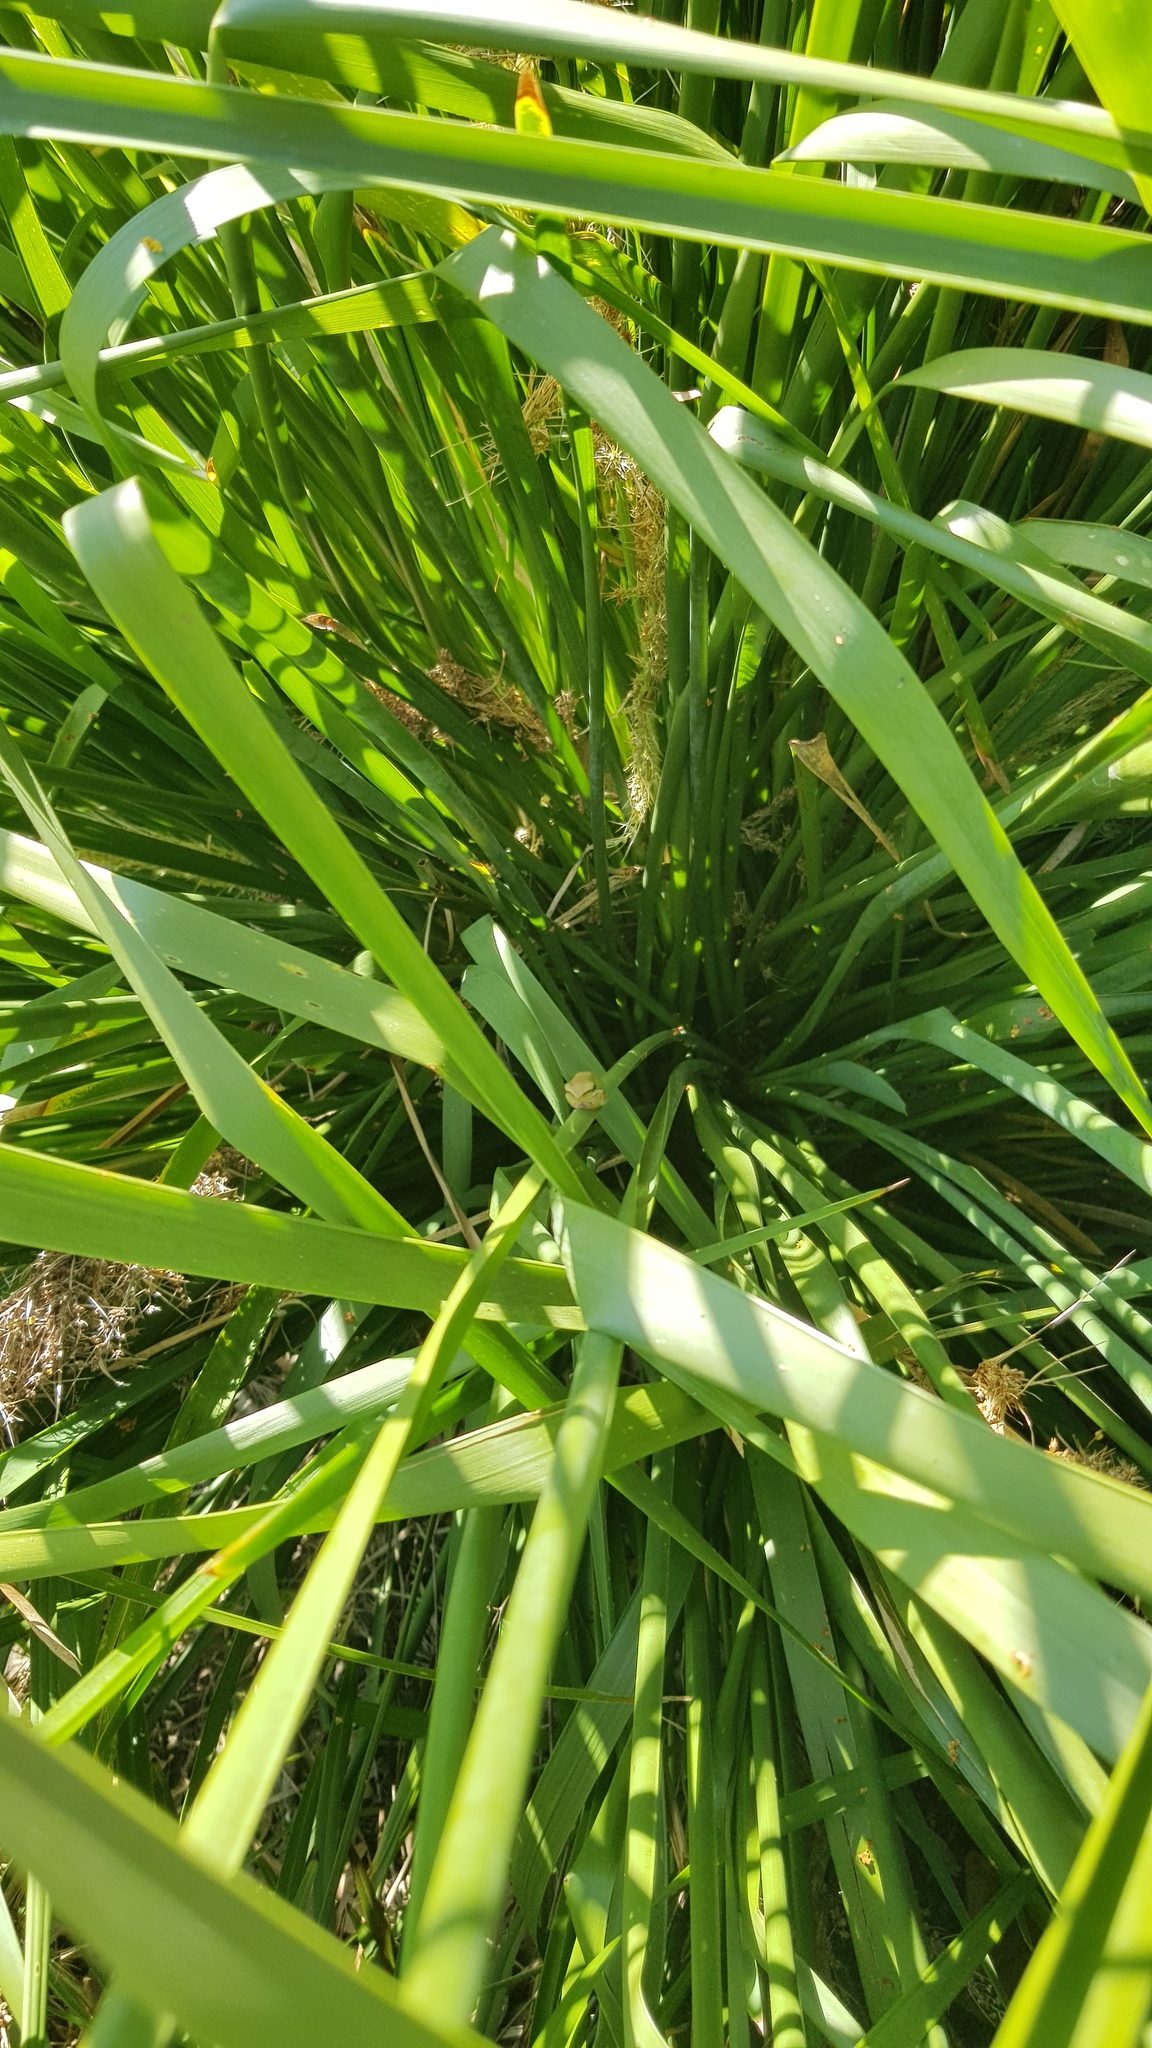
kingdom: Animalia
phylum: Chordata
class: Amphibia
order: Anura
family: Pelodryadidae
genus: Litoria
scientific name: Litoria fallax
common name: Eastern dwarf treefrog
